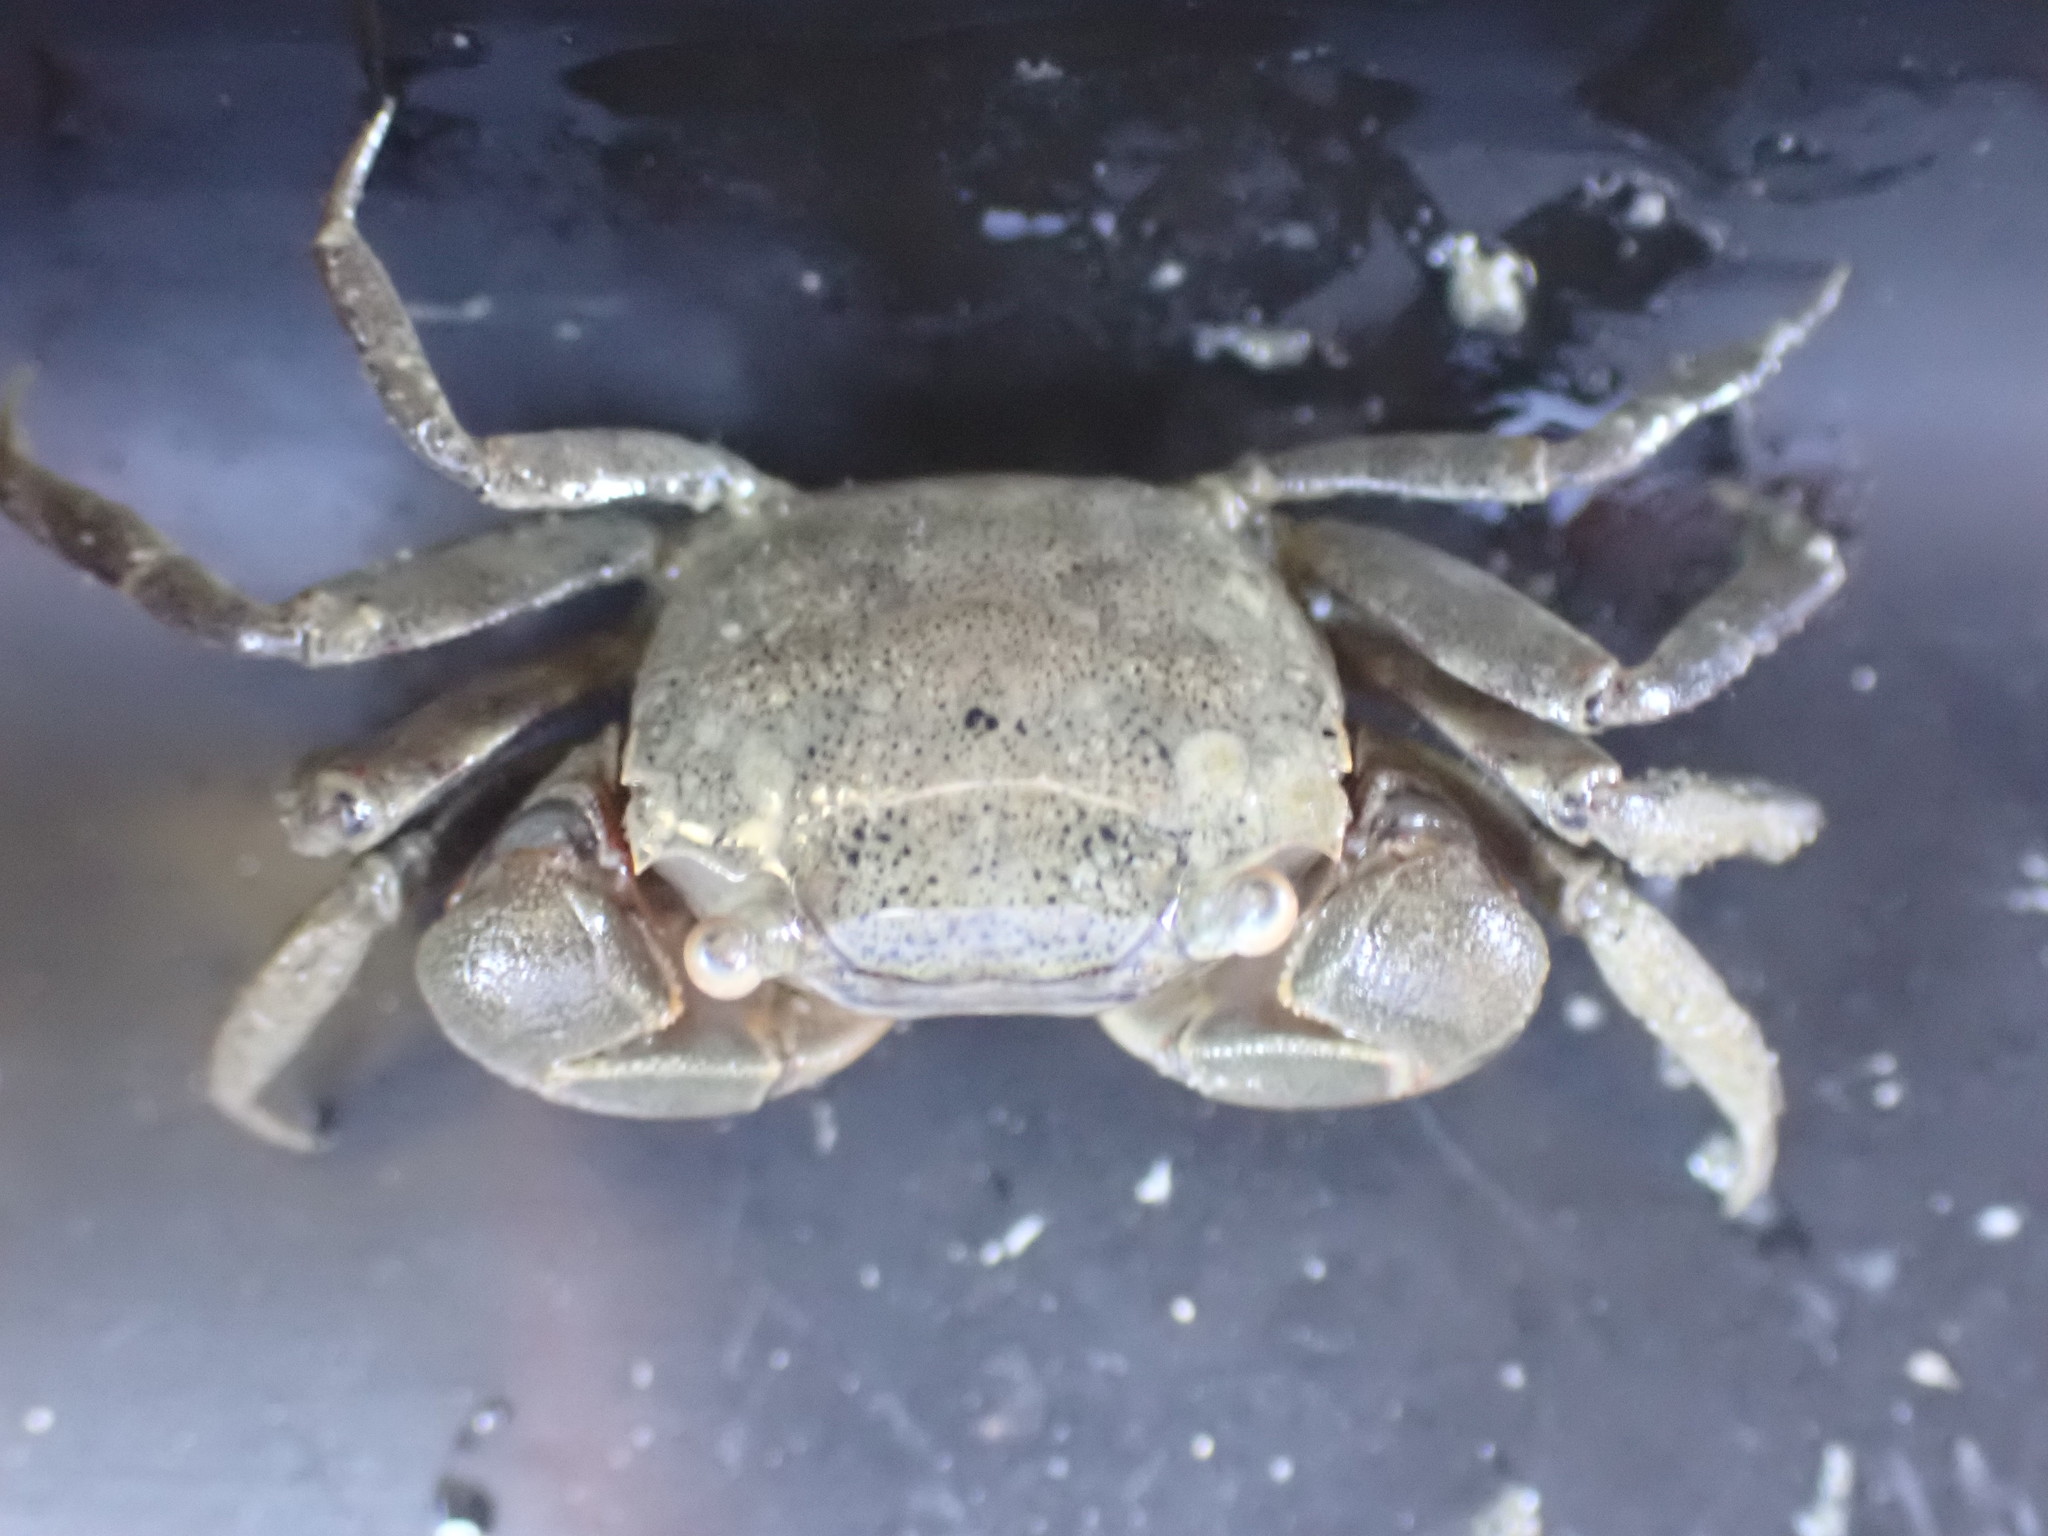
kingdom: Animalia
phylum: Arthropoda
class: Malacostraca
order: Decapoda
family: Varunidae
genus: Austrohelice
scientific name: Austrohelice crassa
